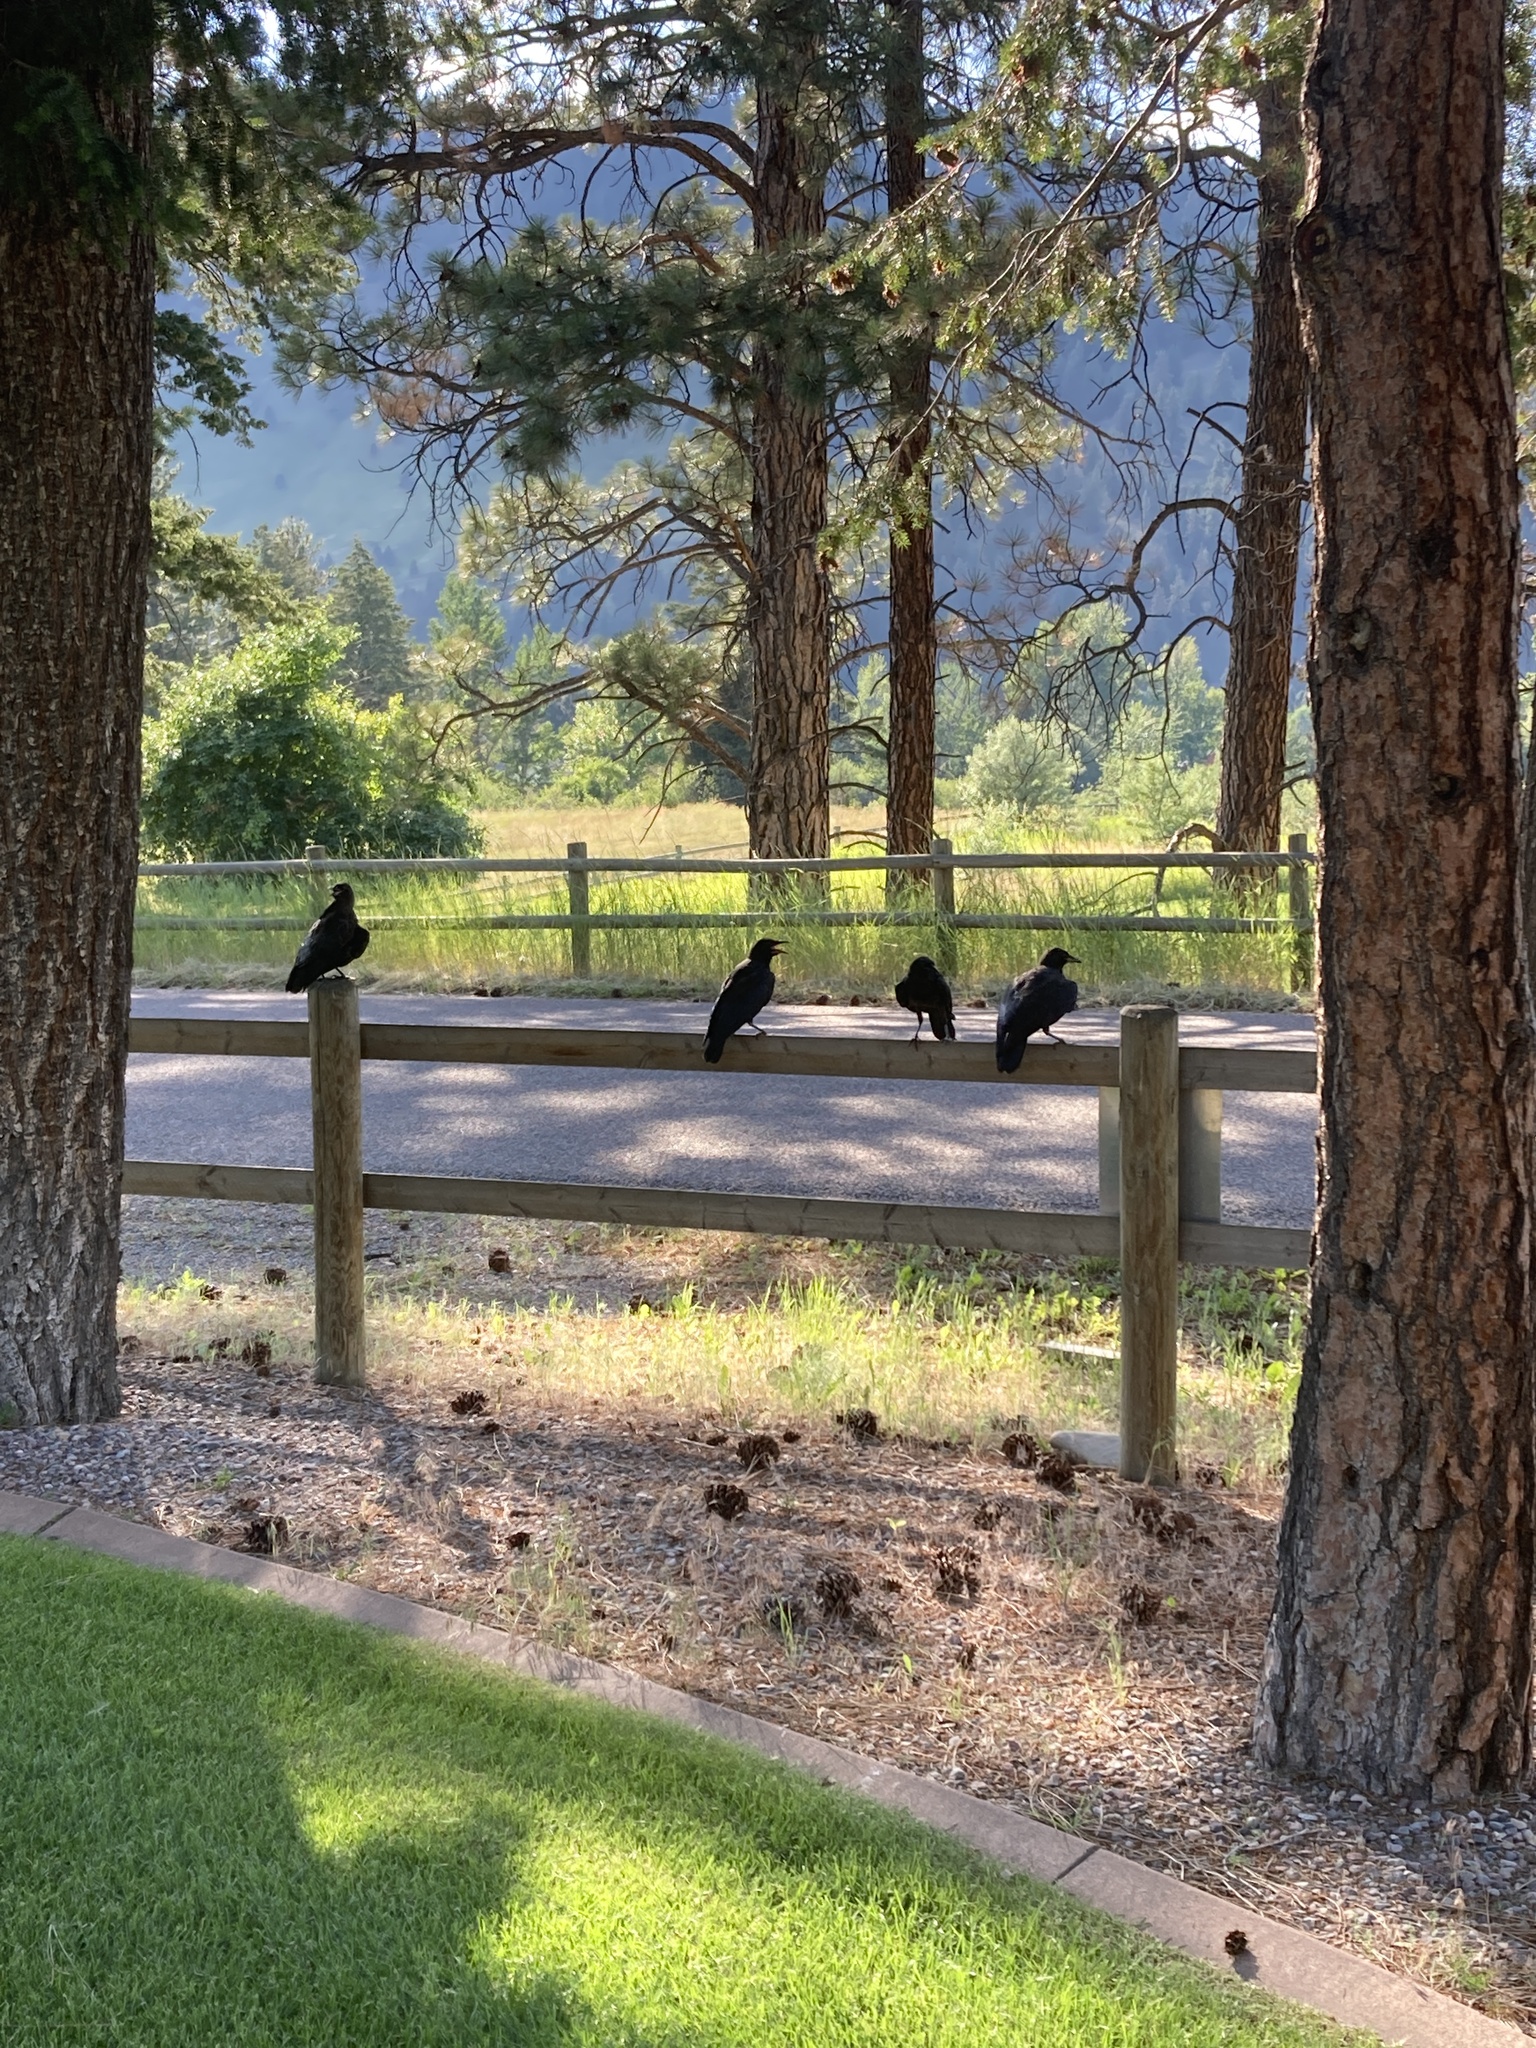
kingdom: Animalia
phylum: Chordata
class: Aves
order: Passeriformes
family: Corvidae
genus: Corvus
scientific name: Corvus brachyrhynchos
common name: American crow
